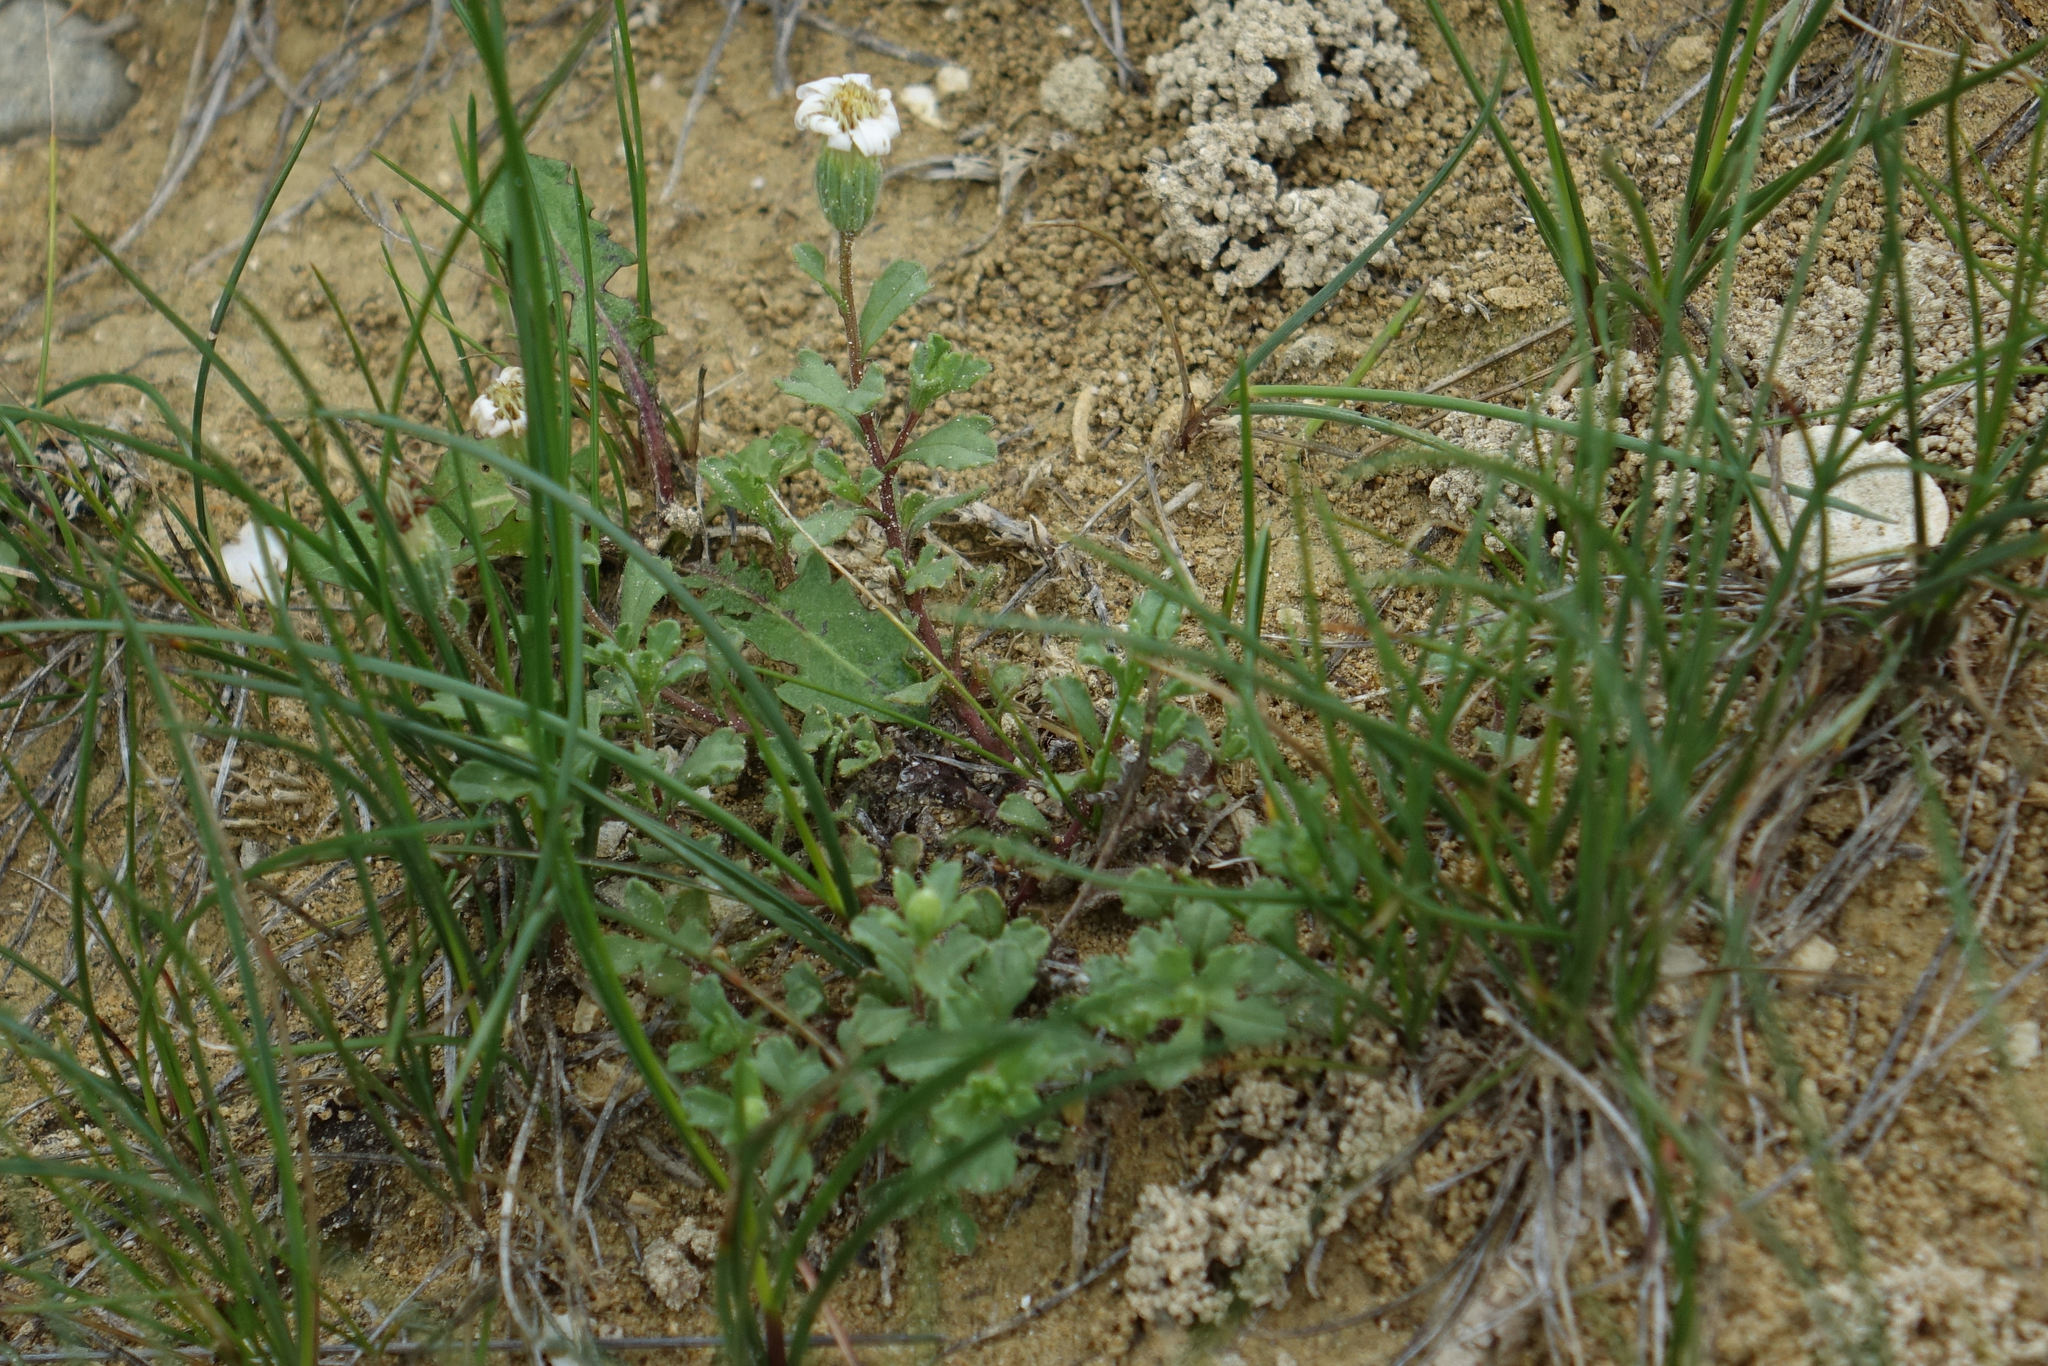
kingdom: Plantae
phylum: Tracheophyta
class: Magnoliopsida
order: Asterales
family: Asteraceae
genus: Vittadinia
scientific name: Vittadinia australis
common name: White fuzzweed
